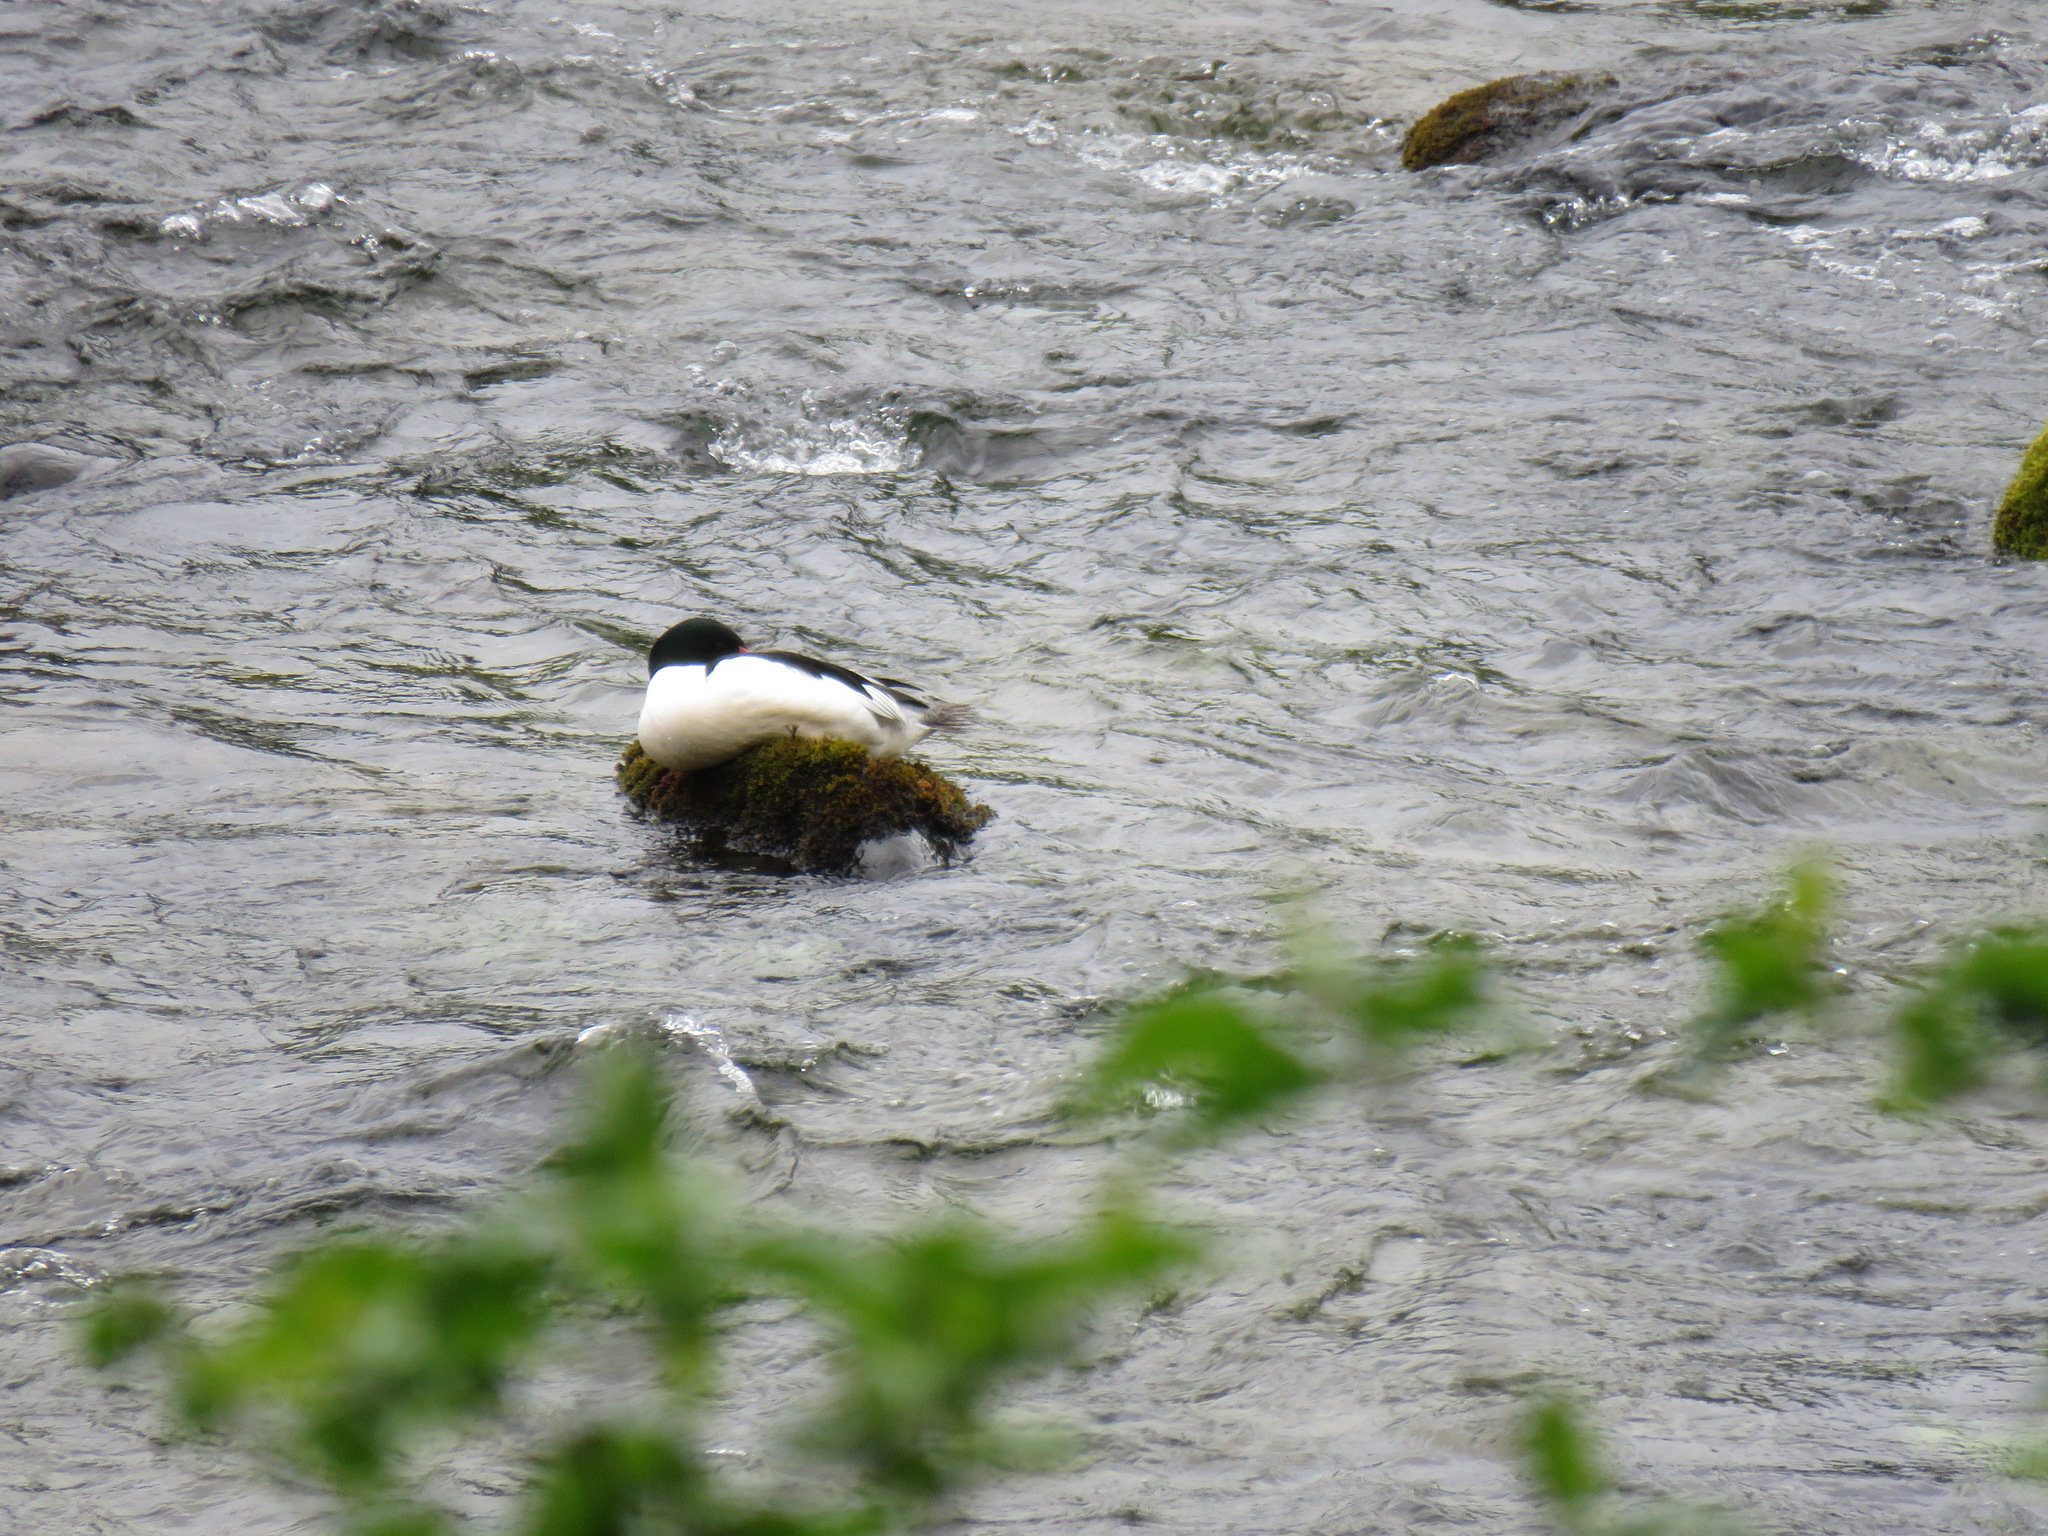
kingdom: Animalia
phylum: Chordata
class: Aves
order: Anseriformes
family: Anatidae
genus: Mergus
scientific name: Mergus merganser
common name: Common merganser
